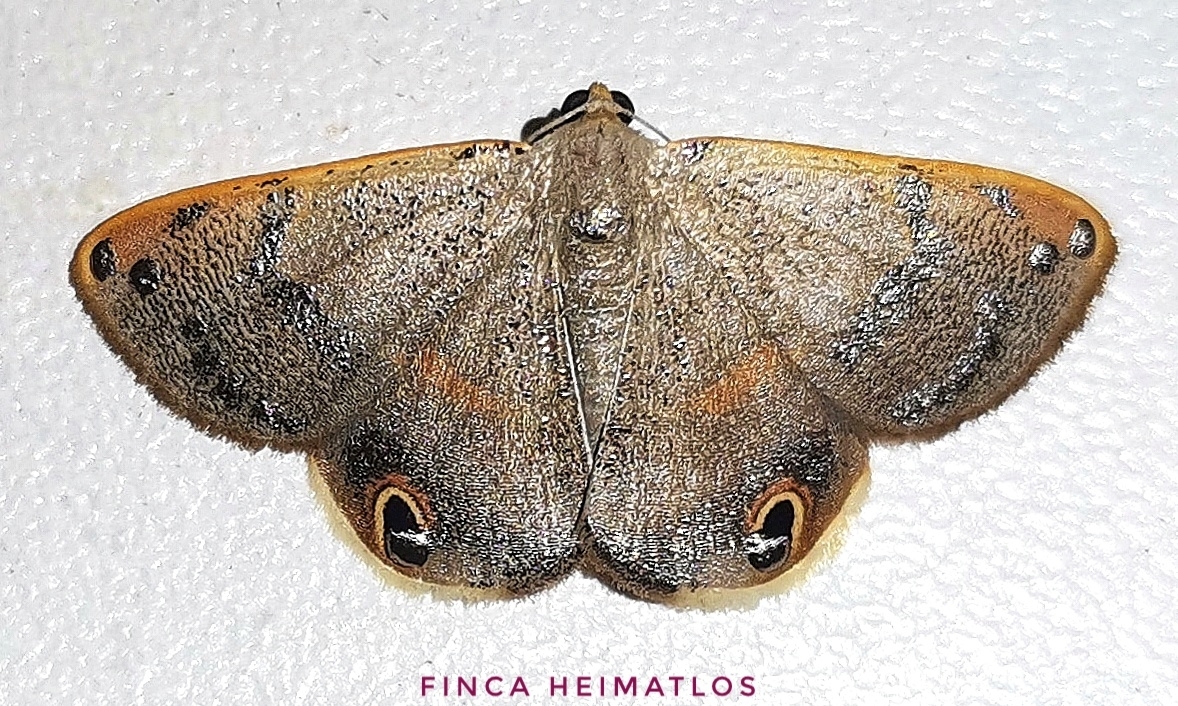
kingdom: Animalia
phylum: Arthropoda
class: Insecta
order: Lepidoptera
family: Geometridae
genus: Ophthalmoblysis
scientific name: Ophthalmoblysis plutus
